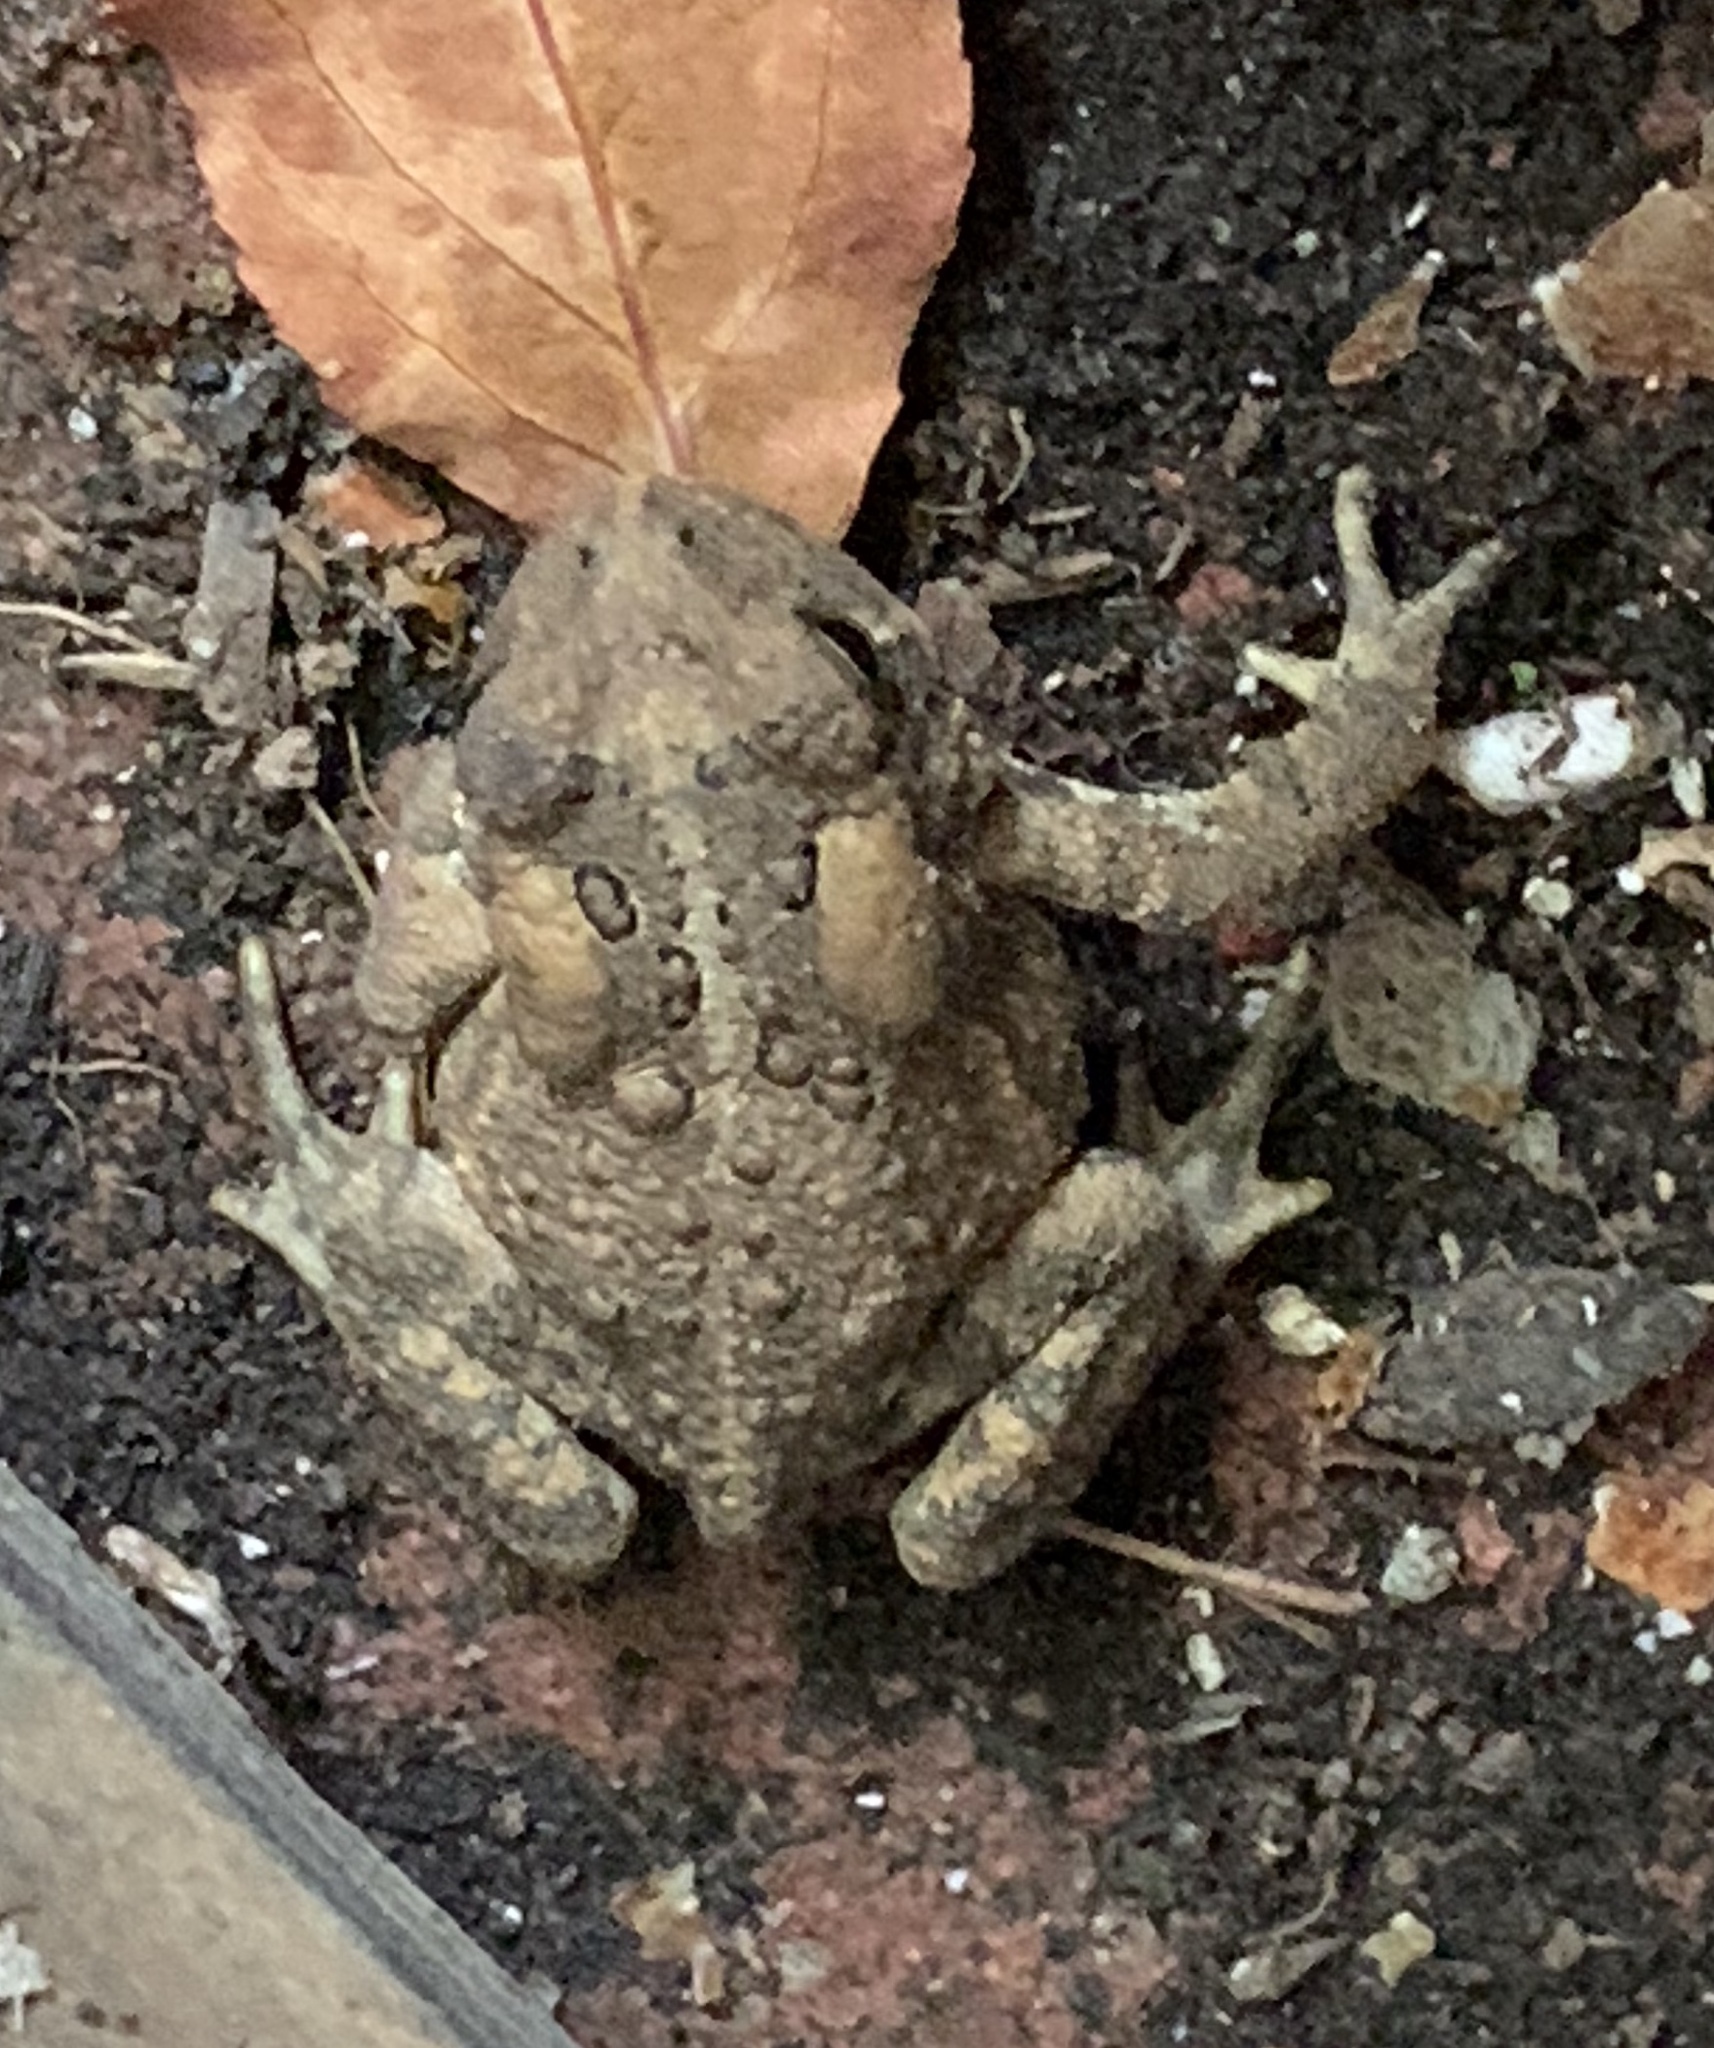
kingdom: Animalia
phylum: Chordata
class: Amphibia
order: Anura
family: Bufonidae
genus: Anaxyrus
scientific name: Anaxyrus americanus
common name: American toad
